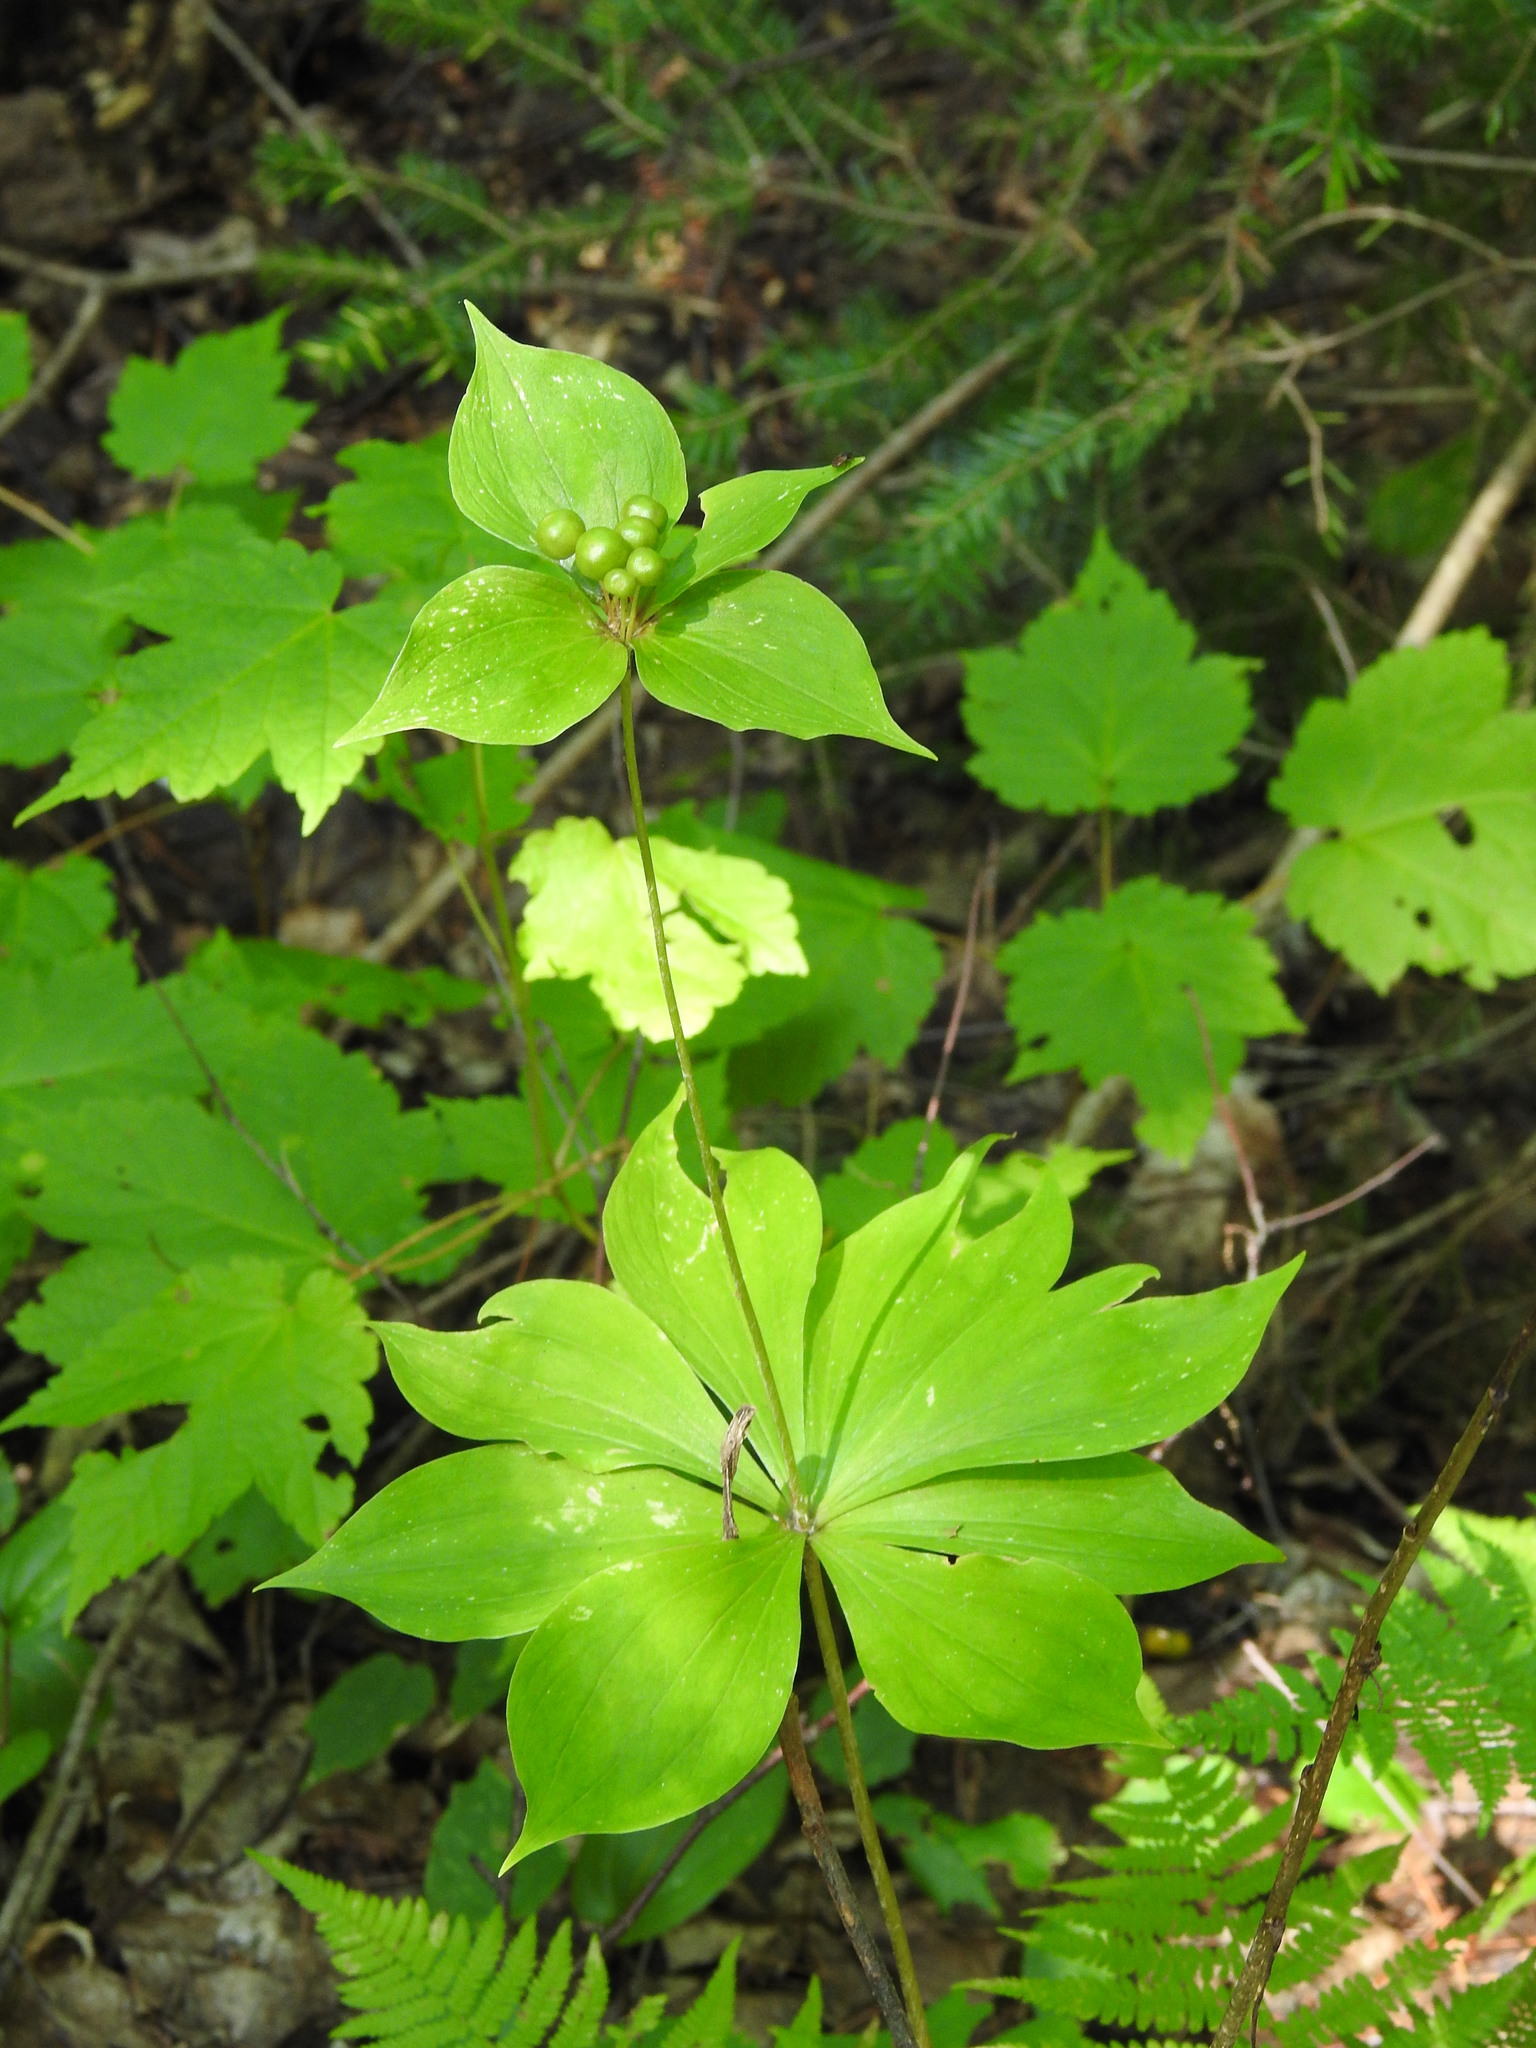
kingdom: Plantae
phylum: Tracheophyta
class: Liliopsida
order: Liliales
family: Liliaceae
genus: Medeola
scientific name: Medeola virginiana
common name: Indian cucumber-root
